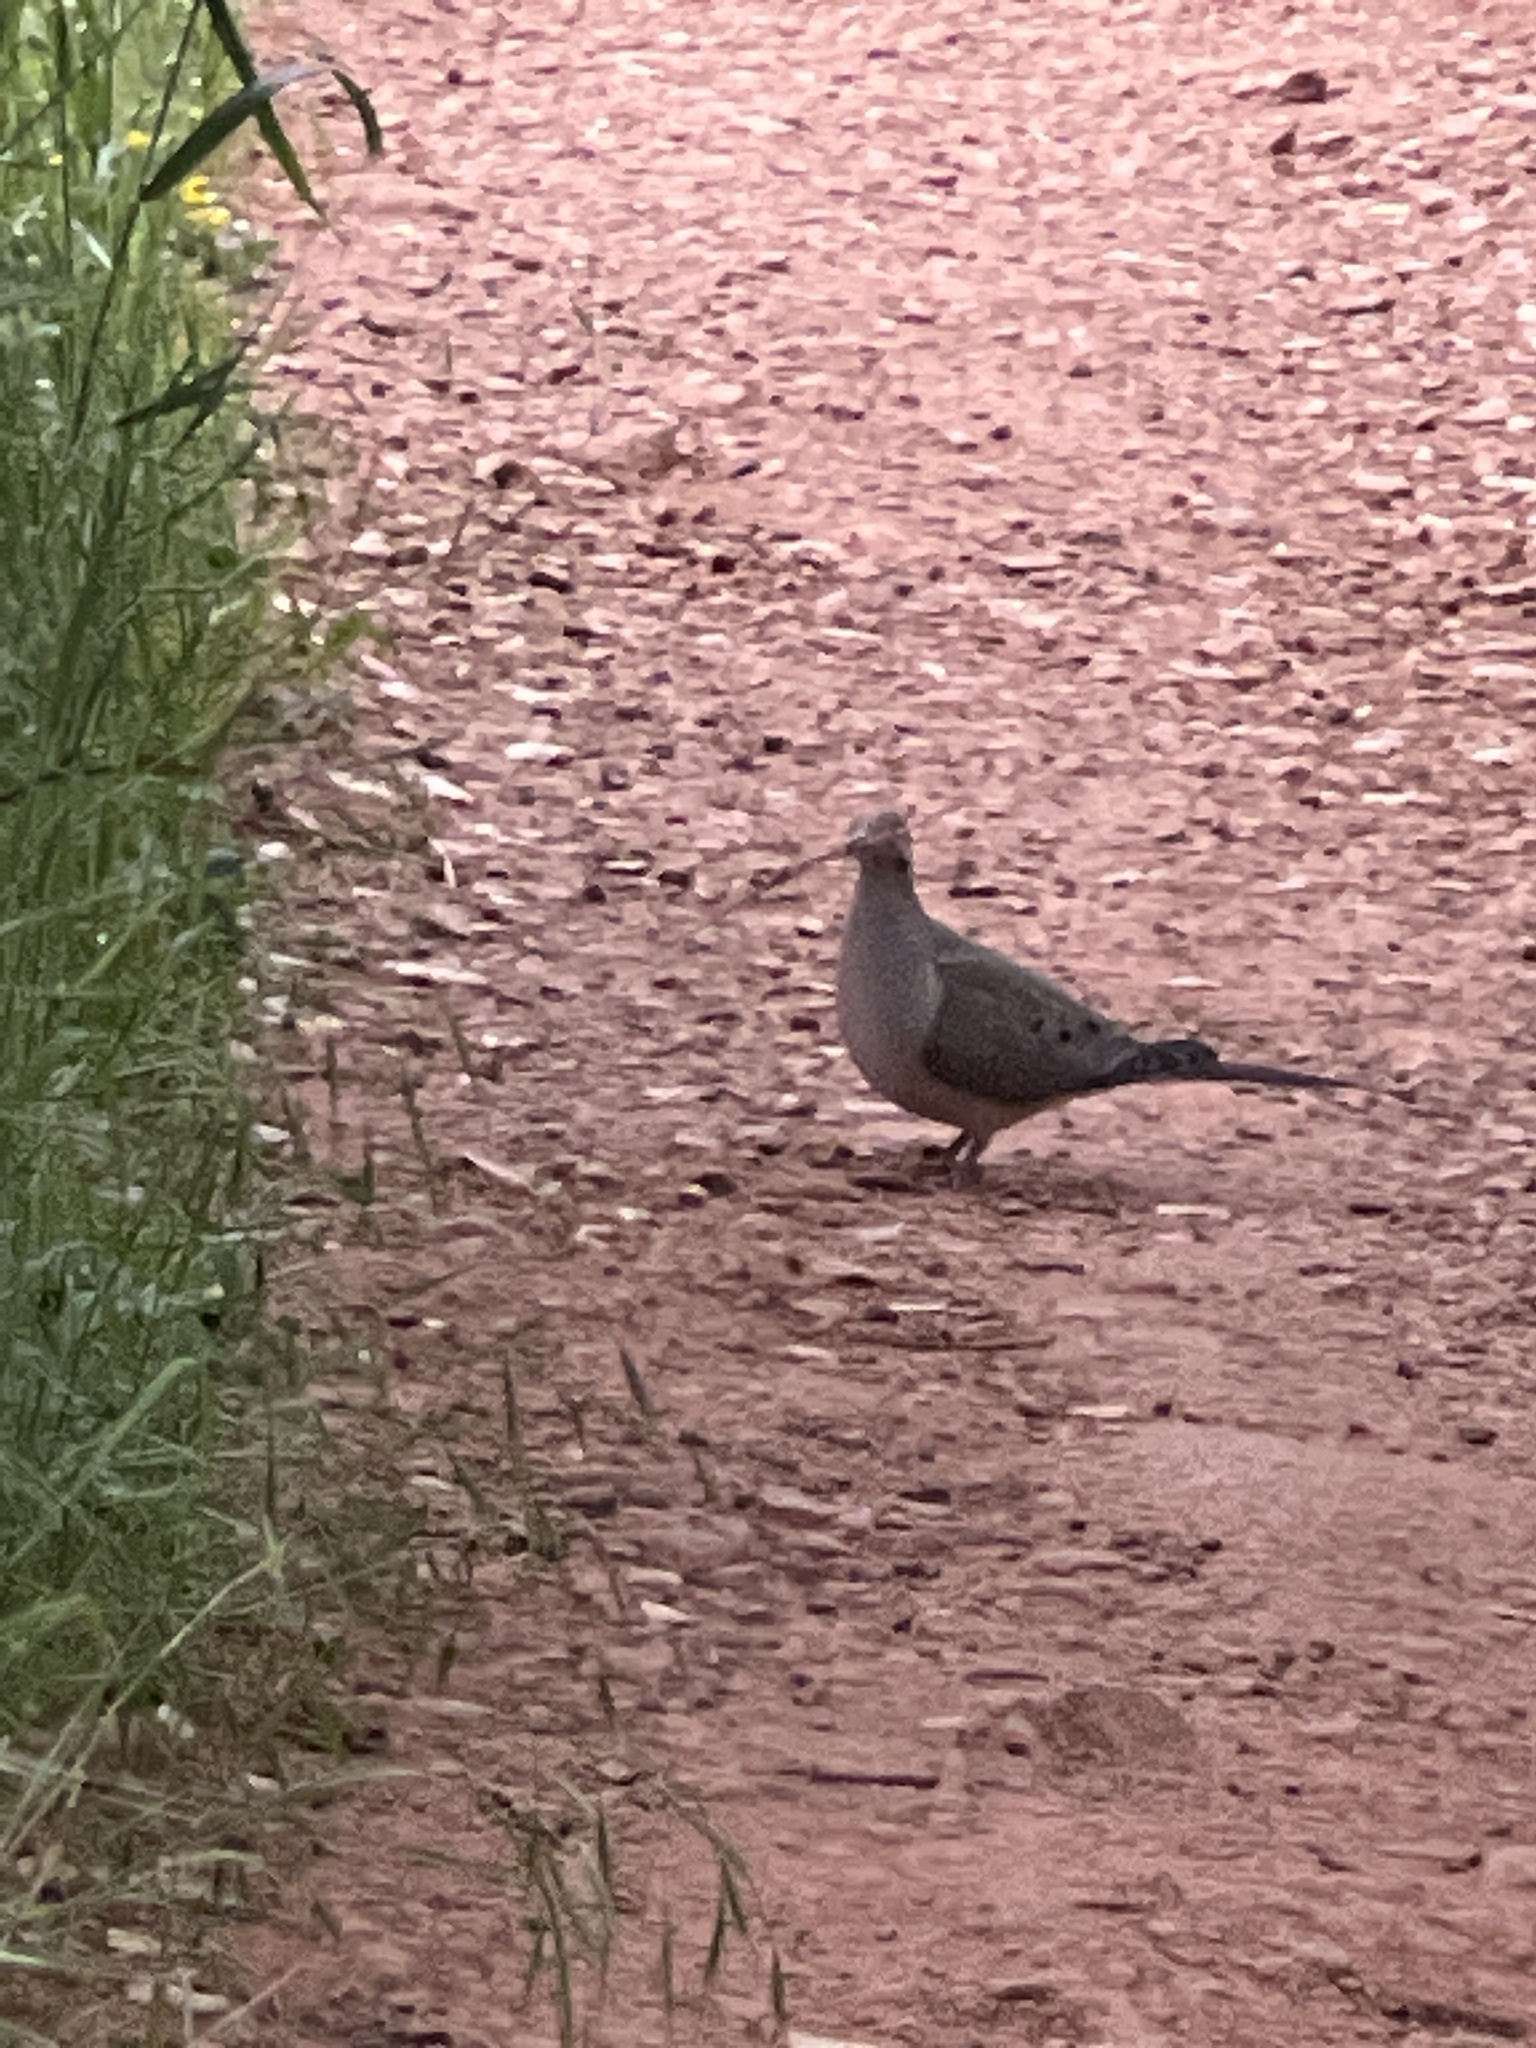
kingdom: Animalia
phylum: Chordata
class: Aves
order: Columbiformes
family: Columbidae
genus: Zenaida
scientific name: Zenaida macroura
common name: Mourning dove
